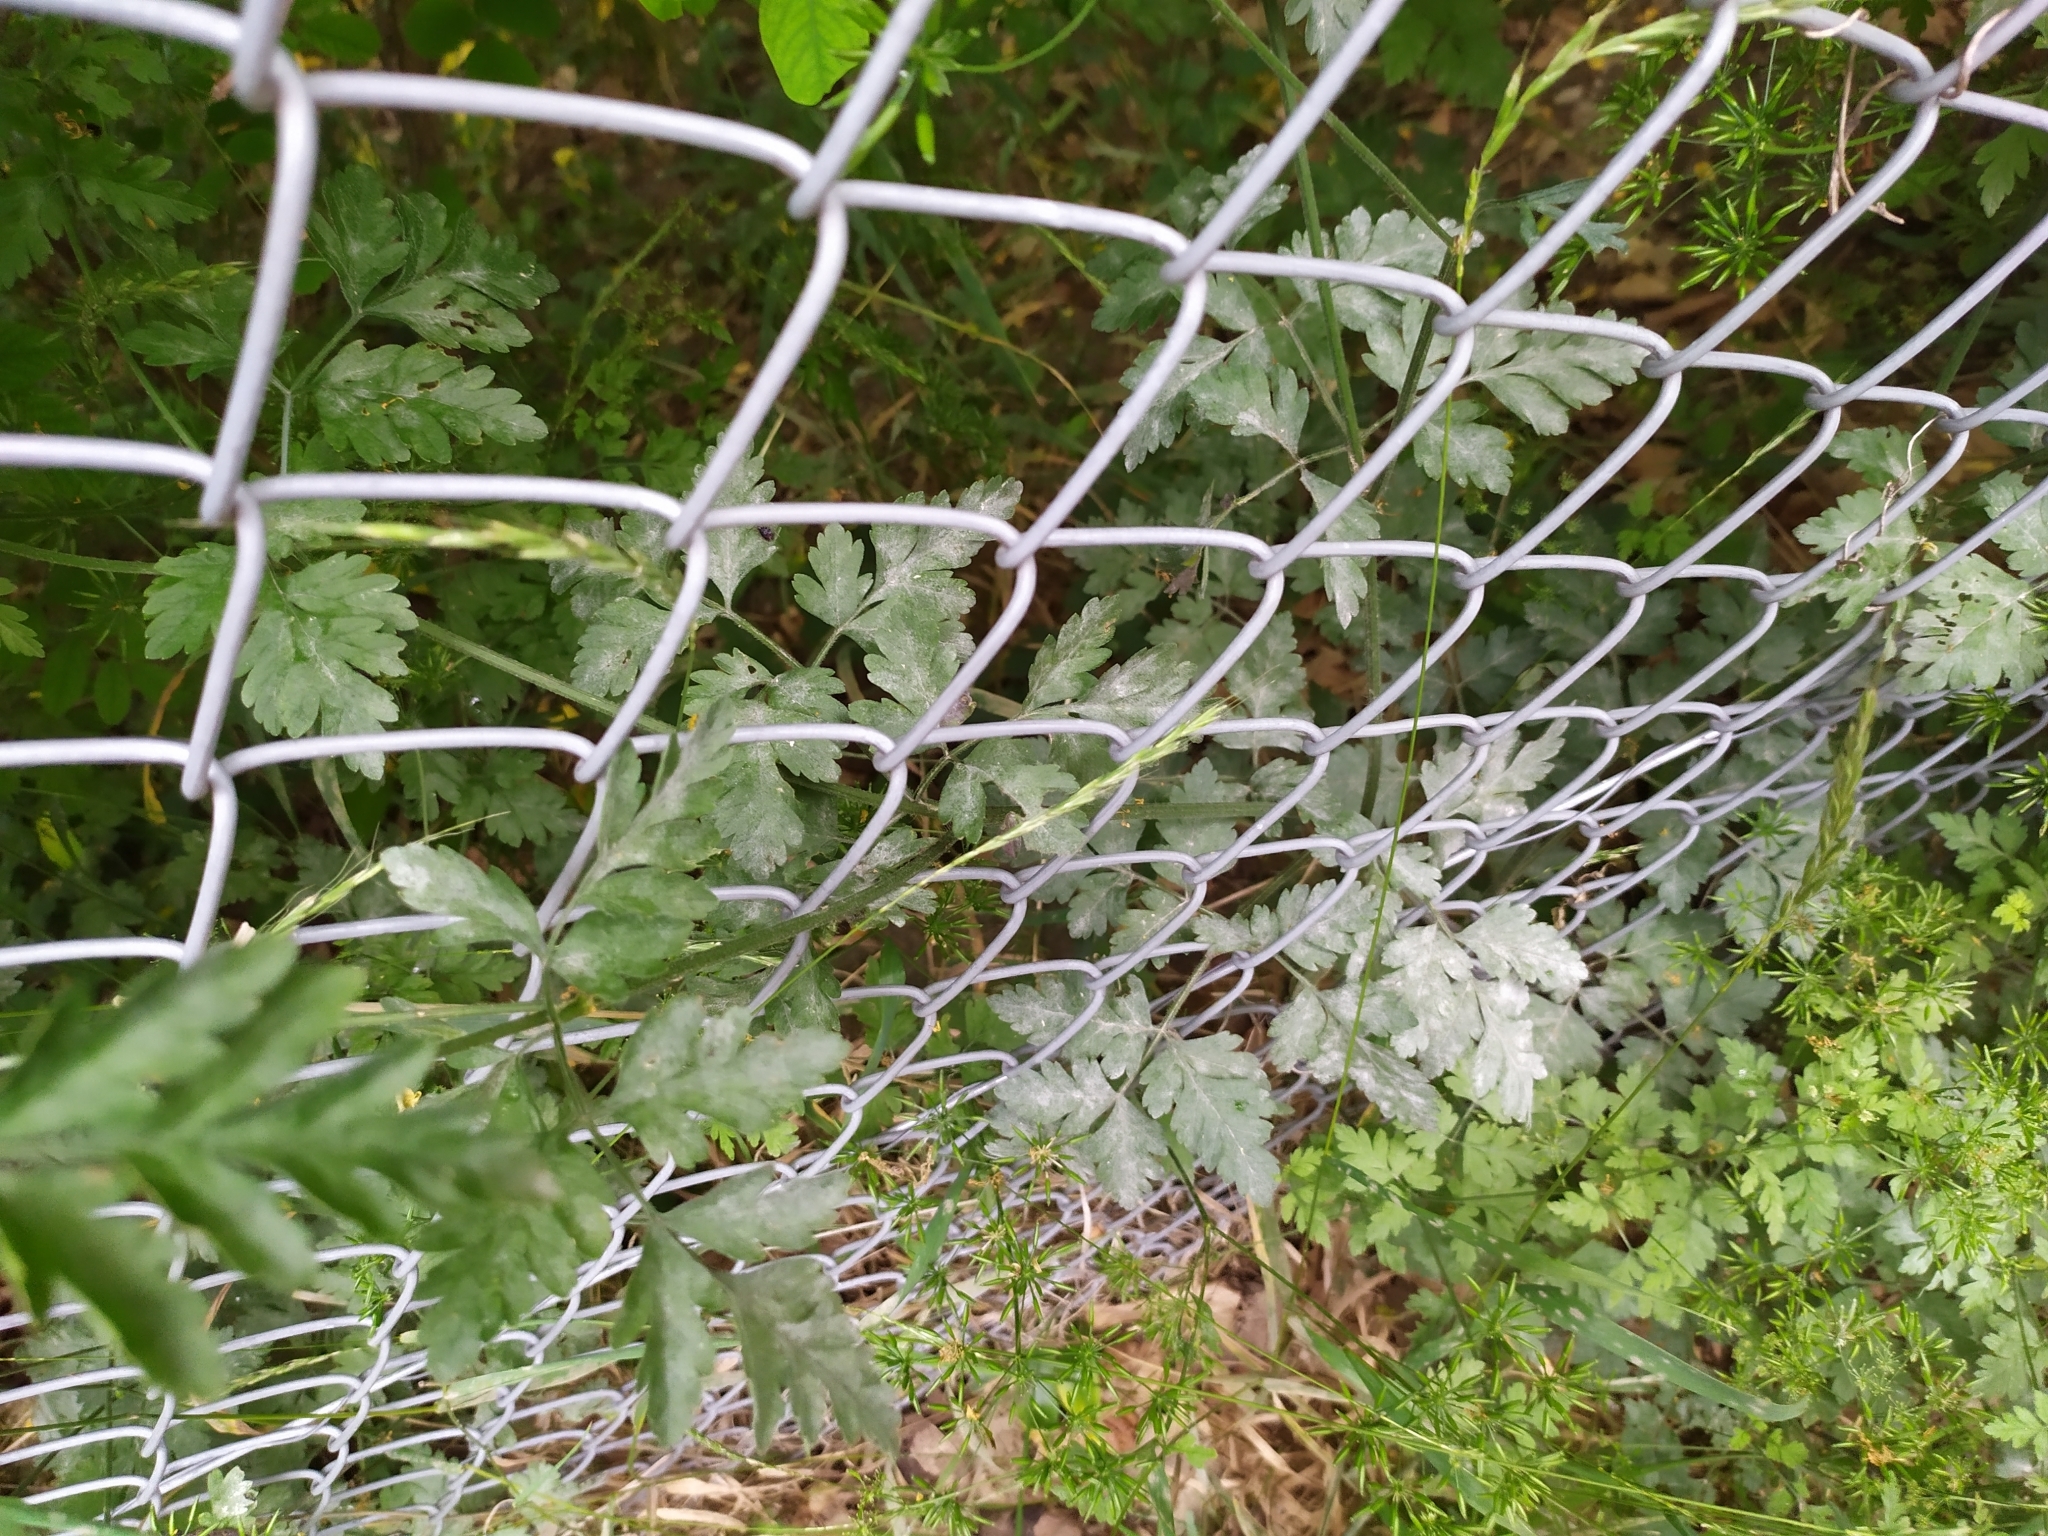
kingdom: Plantae
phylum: Tracheophyta
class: Magnoliopsida
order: Apiales
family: Apiaceae
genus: Chaerophyllum
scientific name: Chaerophyllum temulum
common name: Rough chervil
